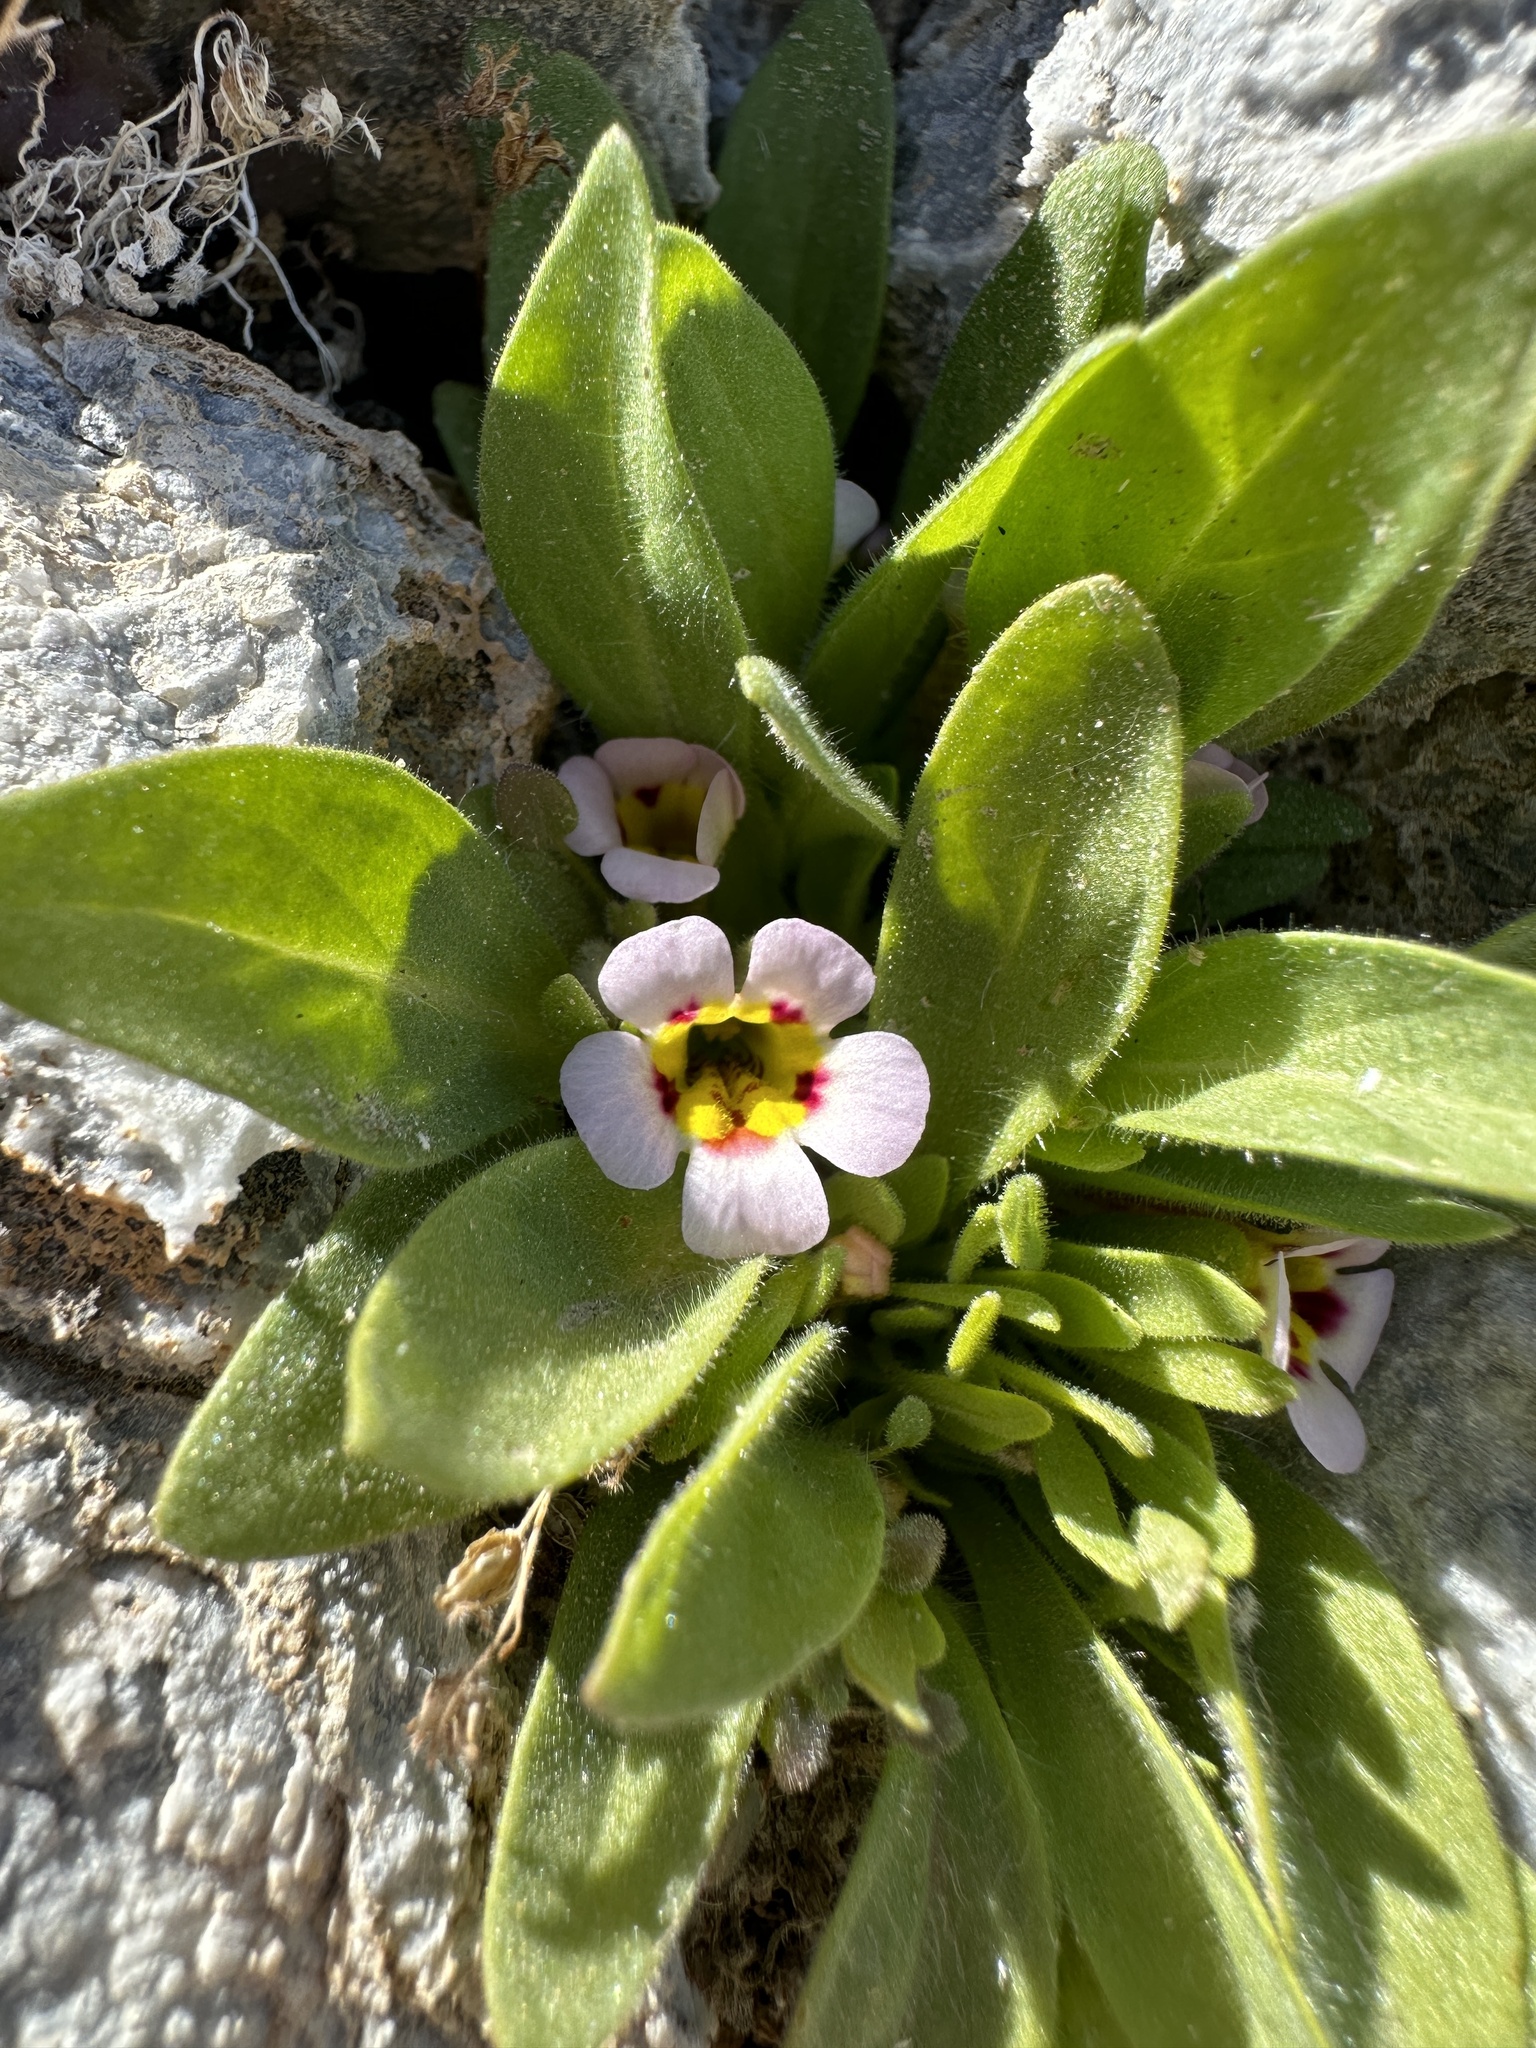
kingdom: Plantae
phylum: Tracheophyta
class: Magnoliopsida
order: Lamiales
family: Phrymaceae
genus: Diplacus
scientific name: Diplacus rupicola
